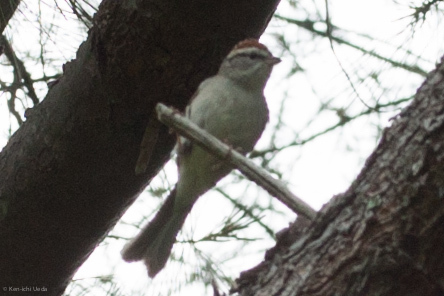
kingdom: Animalia
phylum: Chordata
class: Aves
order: Passeriformes
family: Passerellidae
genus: Spizella
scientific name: Spizella passerina
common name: Chipping sparrow
